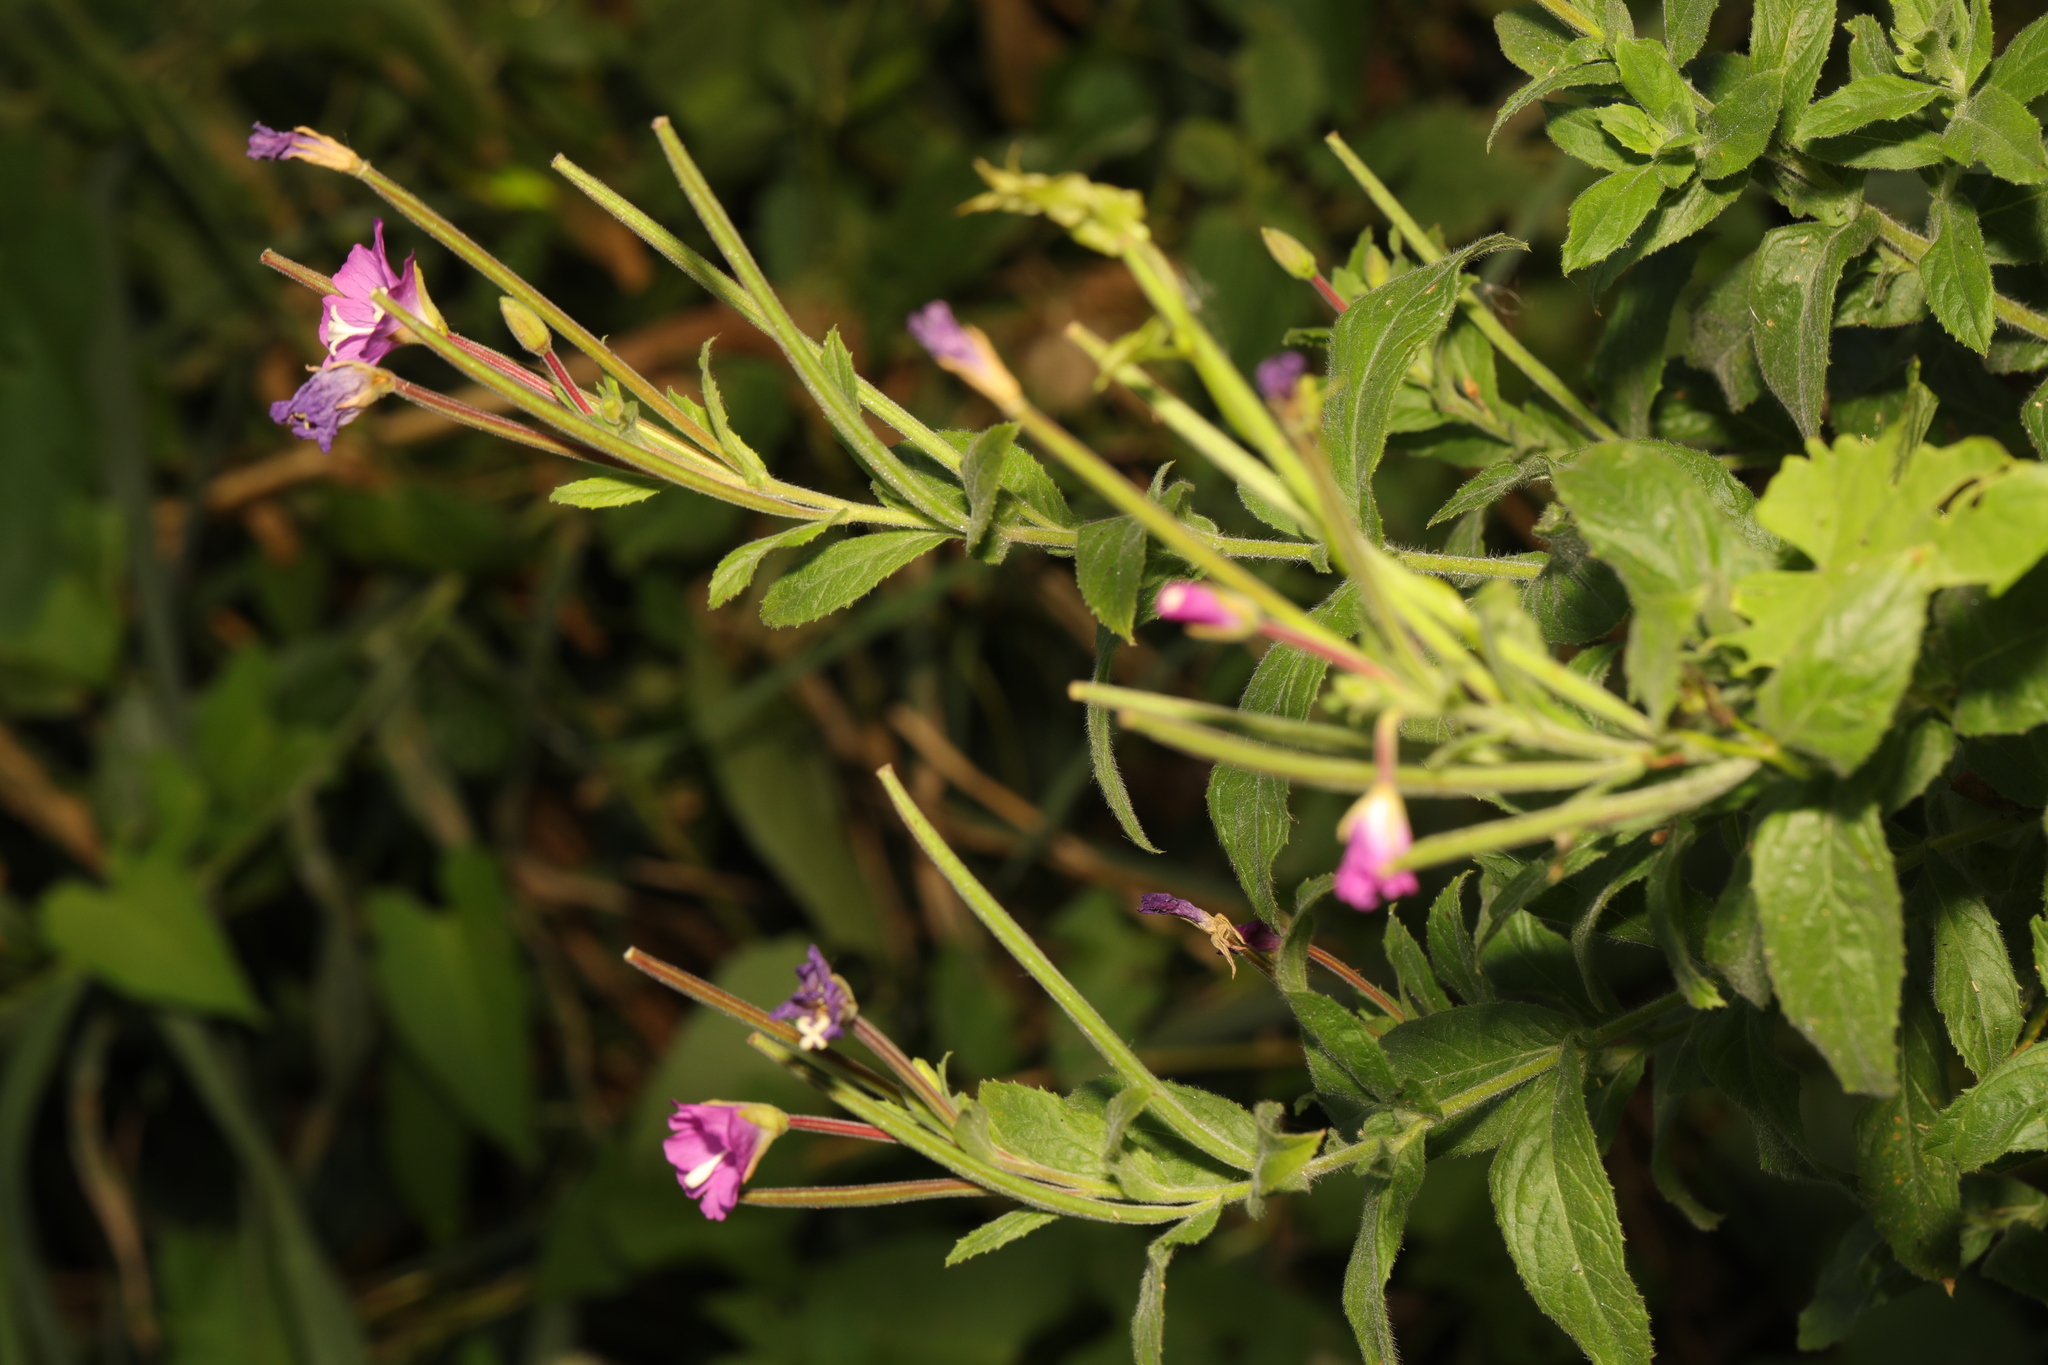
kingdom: Plantae
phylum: Tracheophyta
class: Magnoliopsida
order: Myrtales
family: Onagraceae
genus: Epilobium
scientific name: Epilobium hirsutum
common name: Great willowherb
